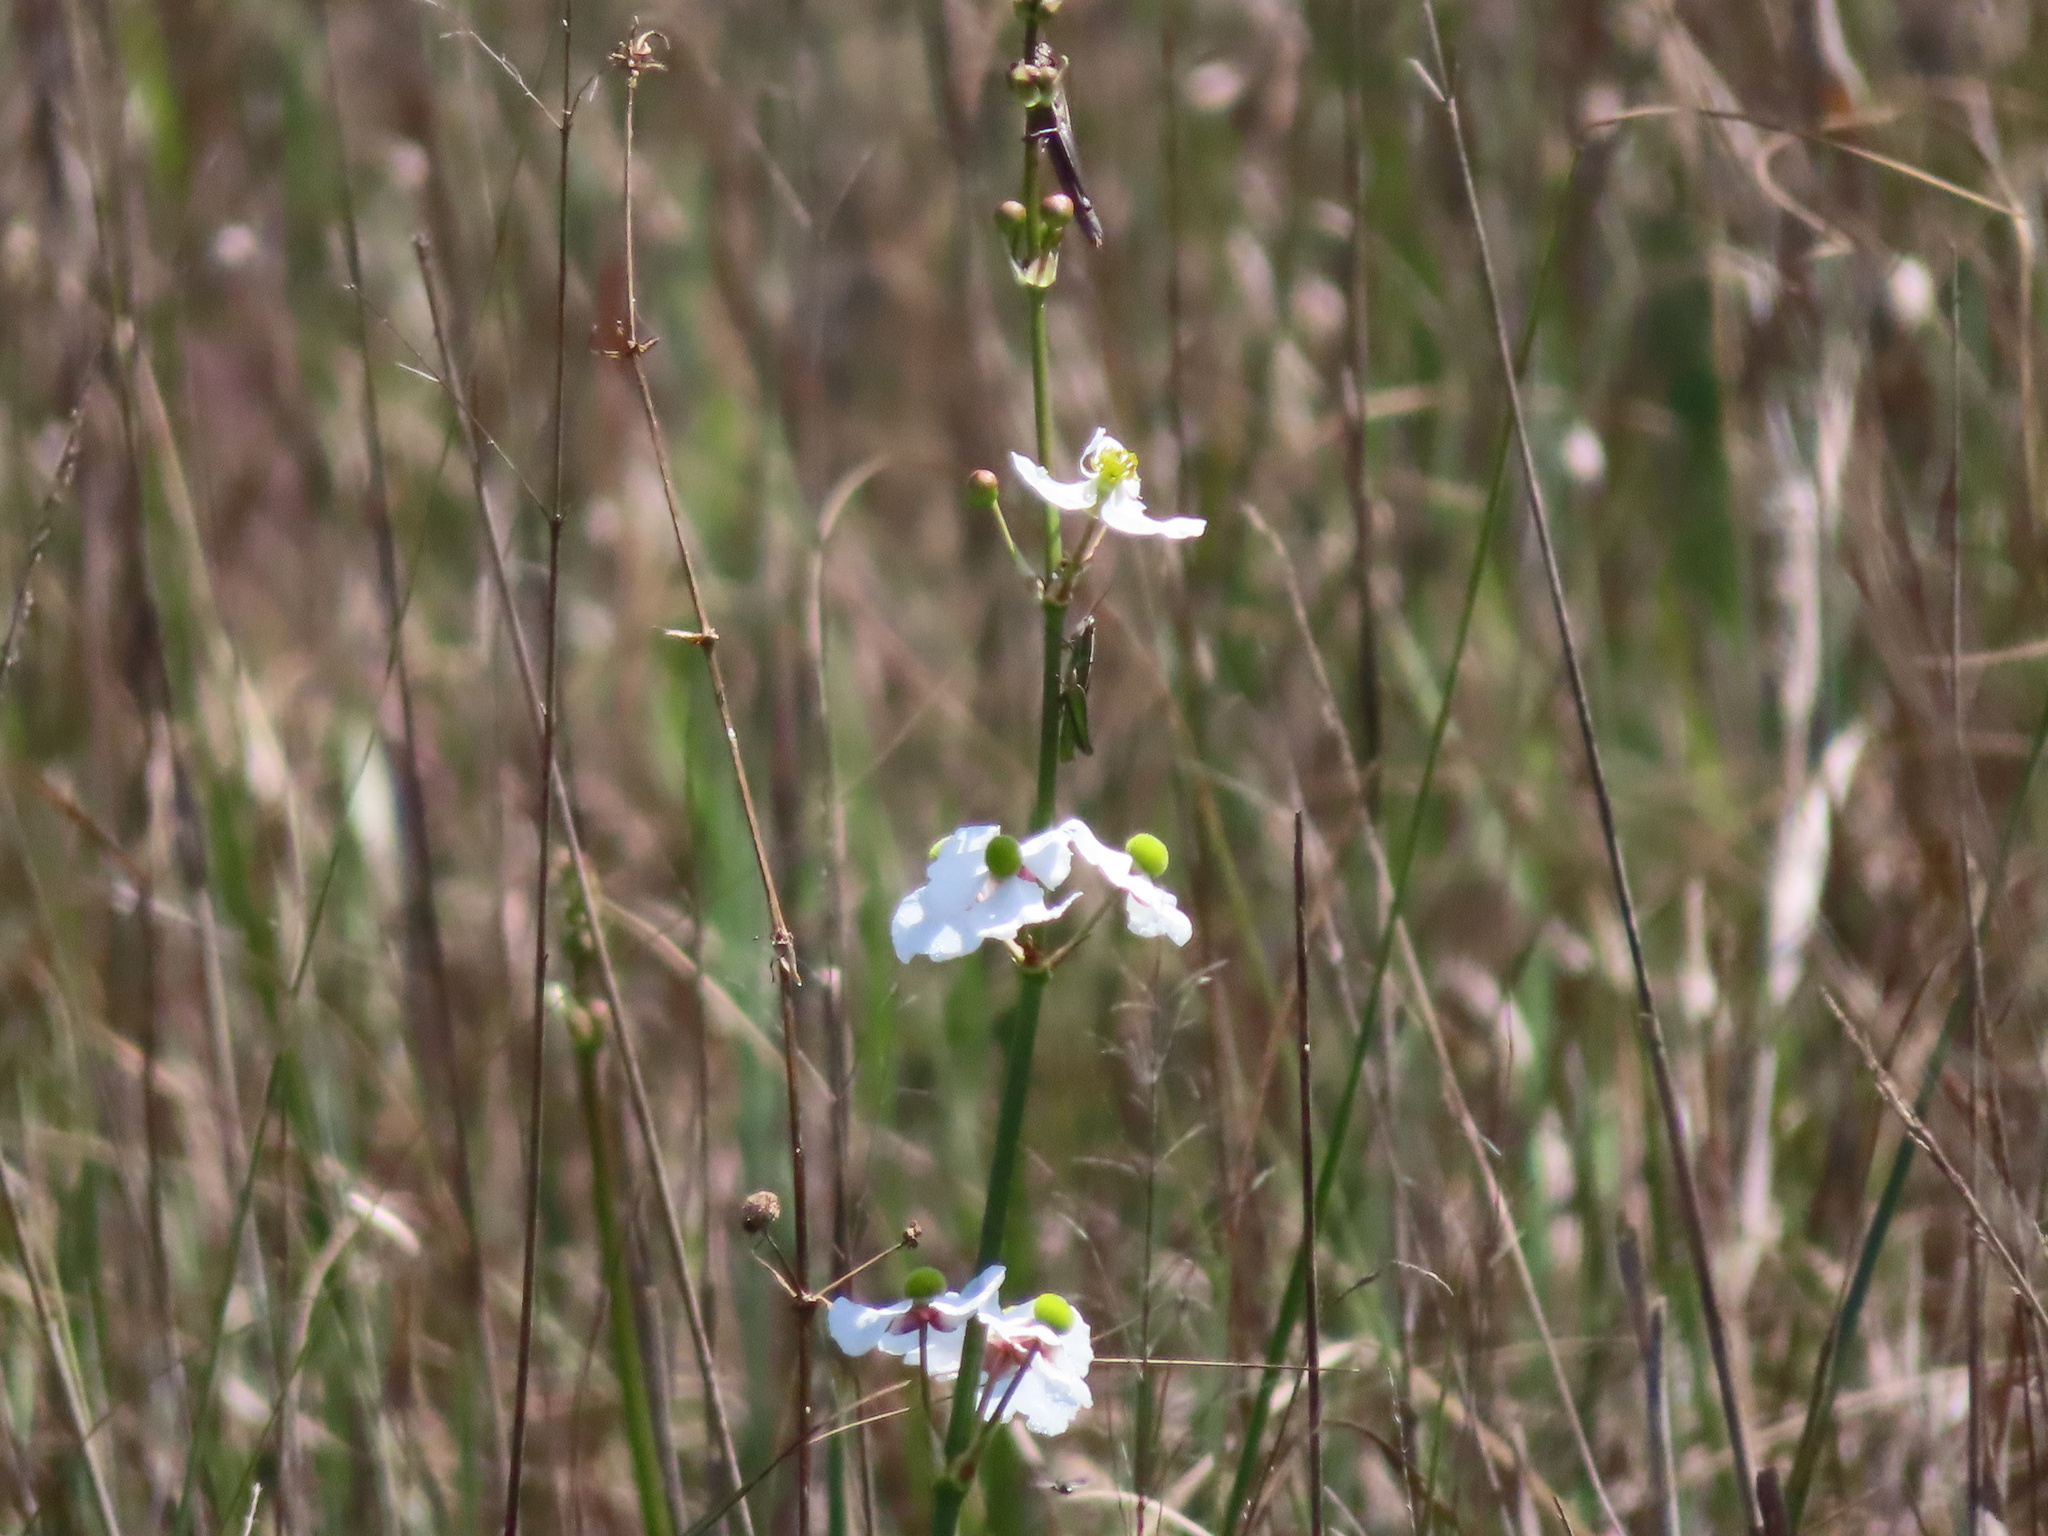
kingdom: Plantae
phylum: Tracheophyta
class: Liliopsida
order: Alismatales
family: Alismataceae
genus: Sagittaria
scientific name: Sagittaria lancifolia
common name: Lance-leaf arrowhead
